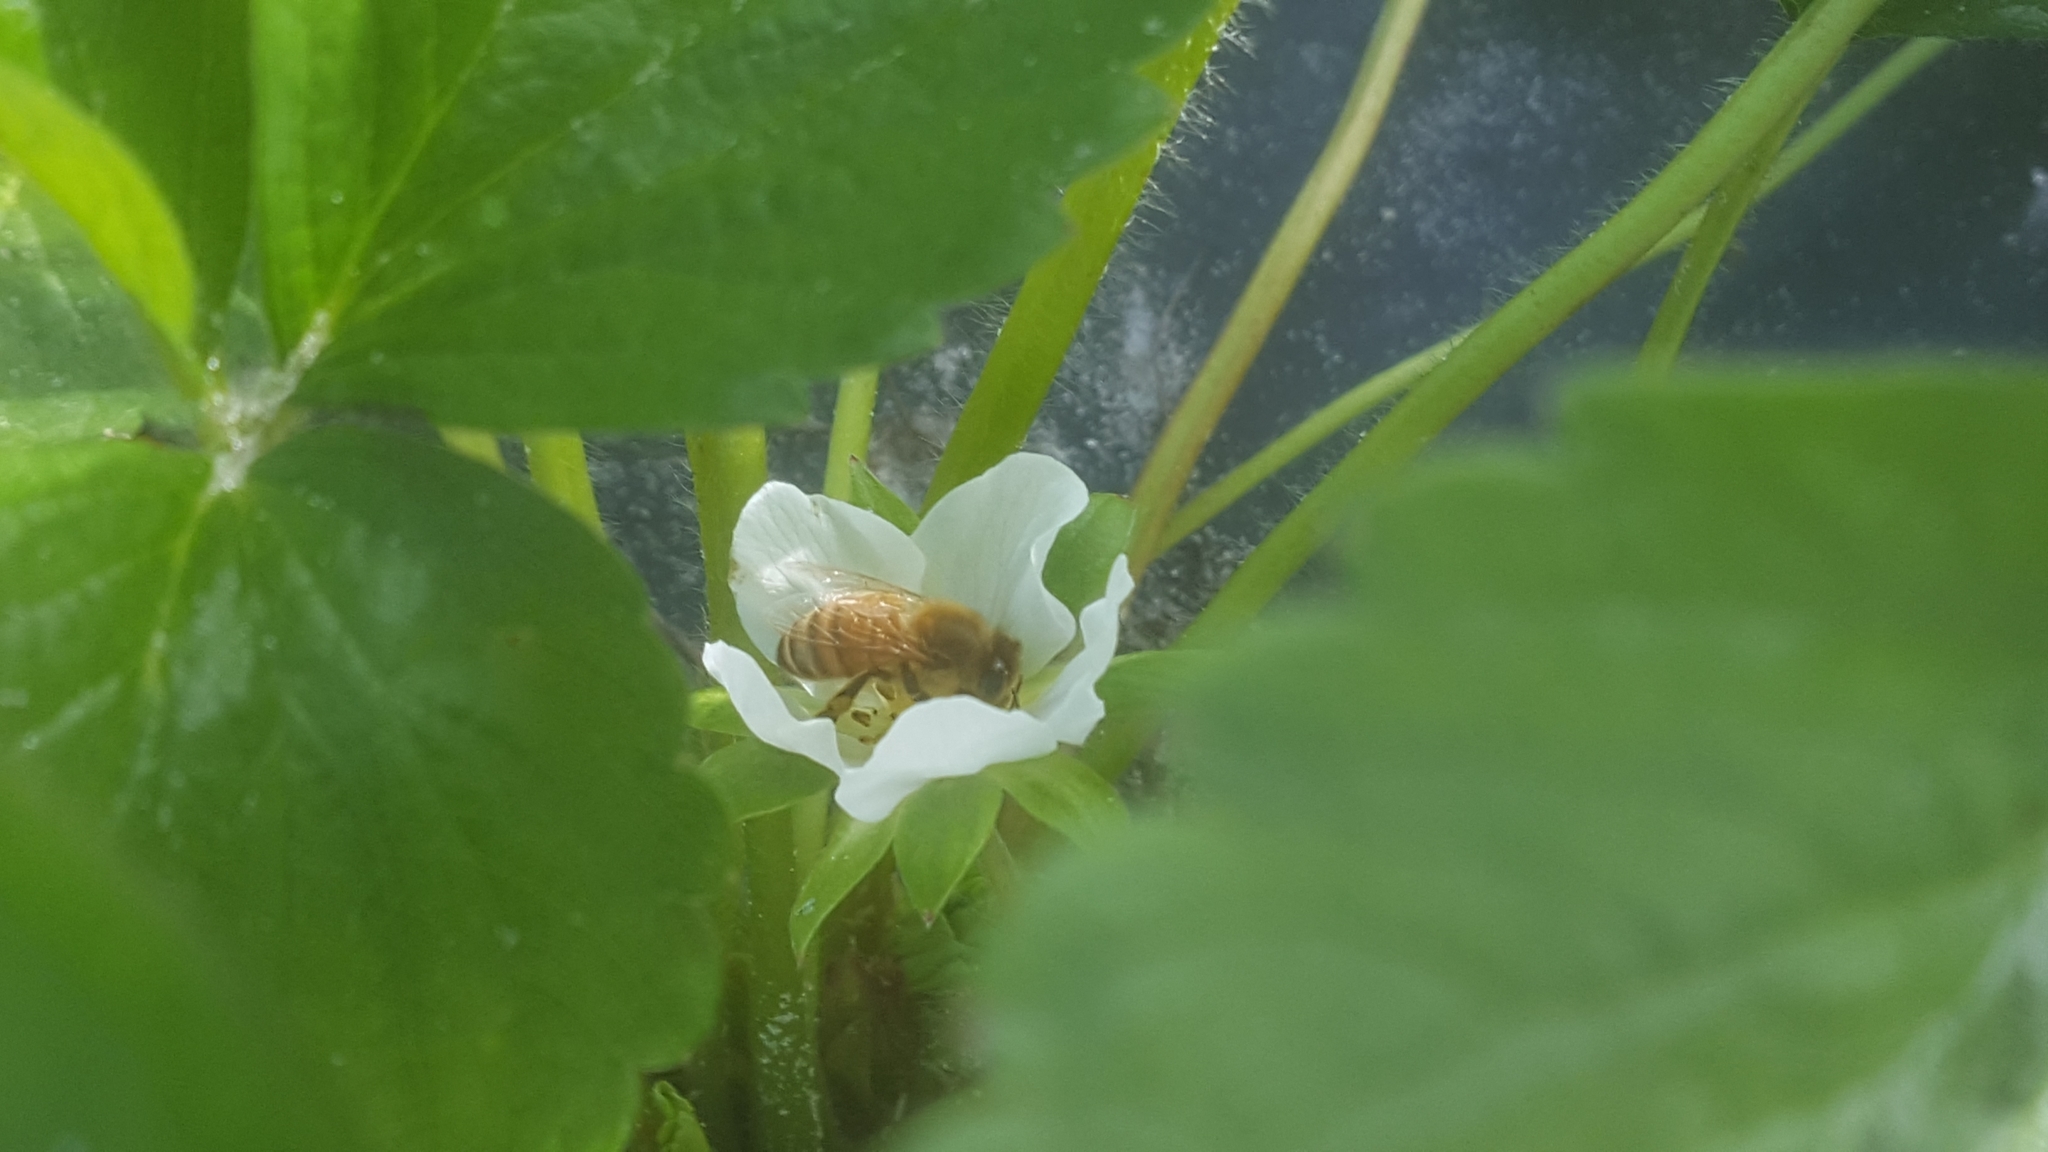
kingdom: Animalia
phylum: Arthropoda
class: Insecta
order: Hymenoptera
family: Apidae
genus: Apis
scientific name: Apis mellifera
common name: Honey bee
